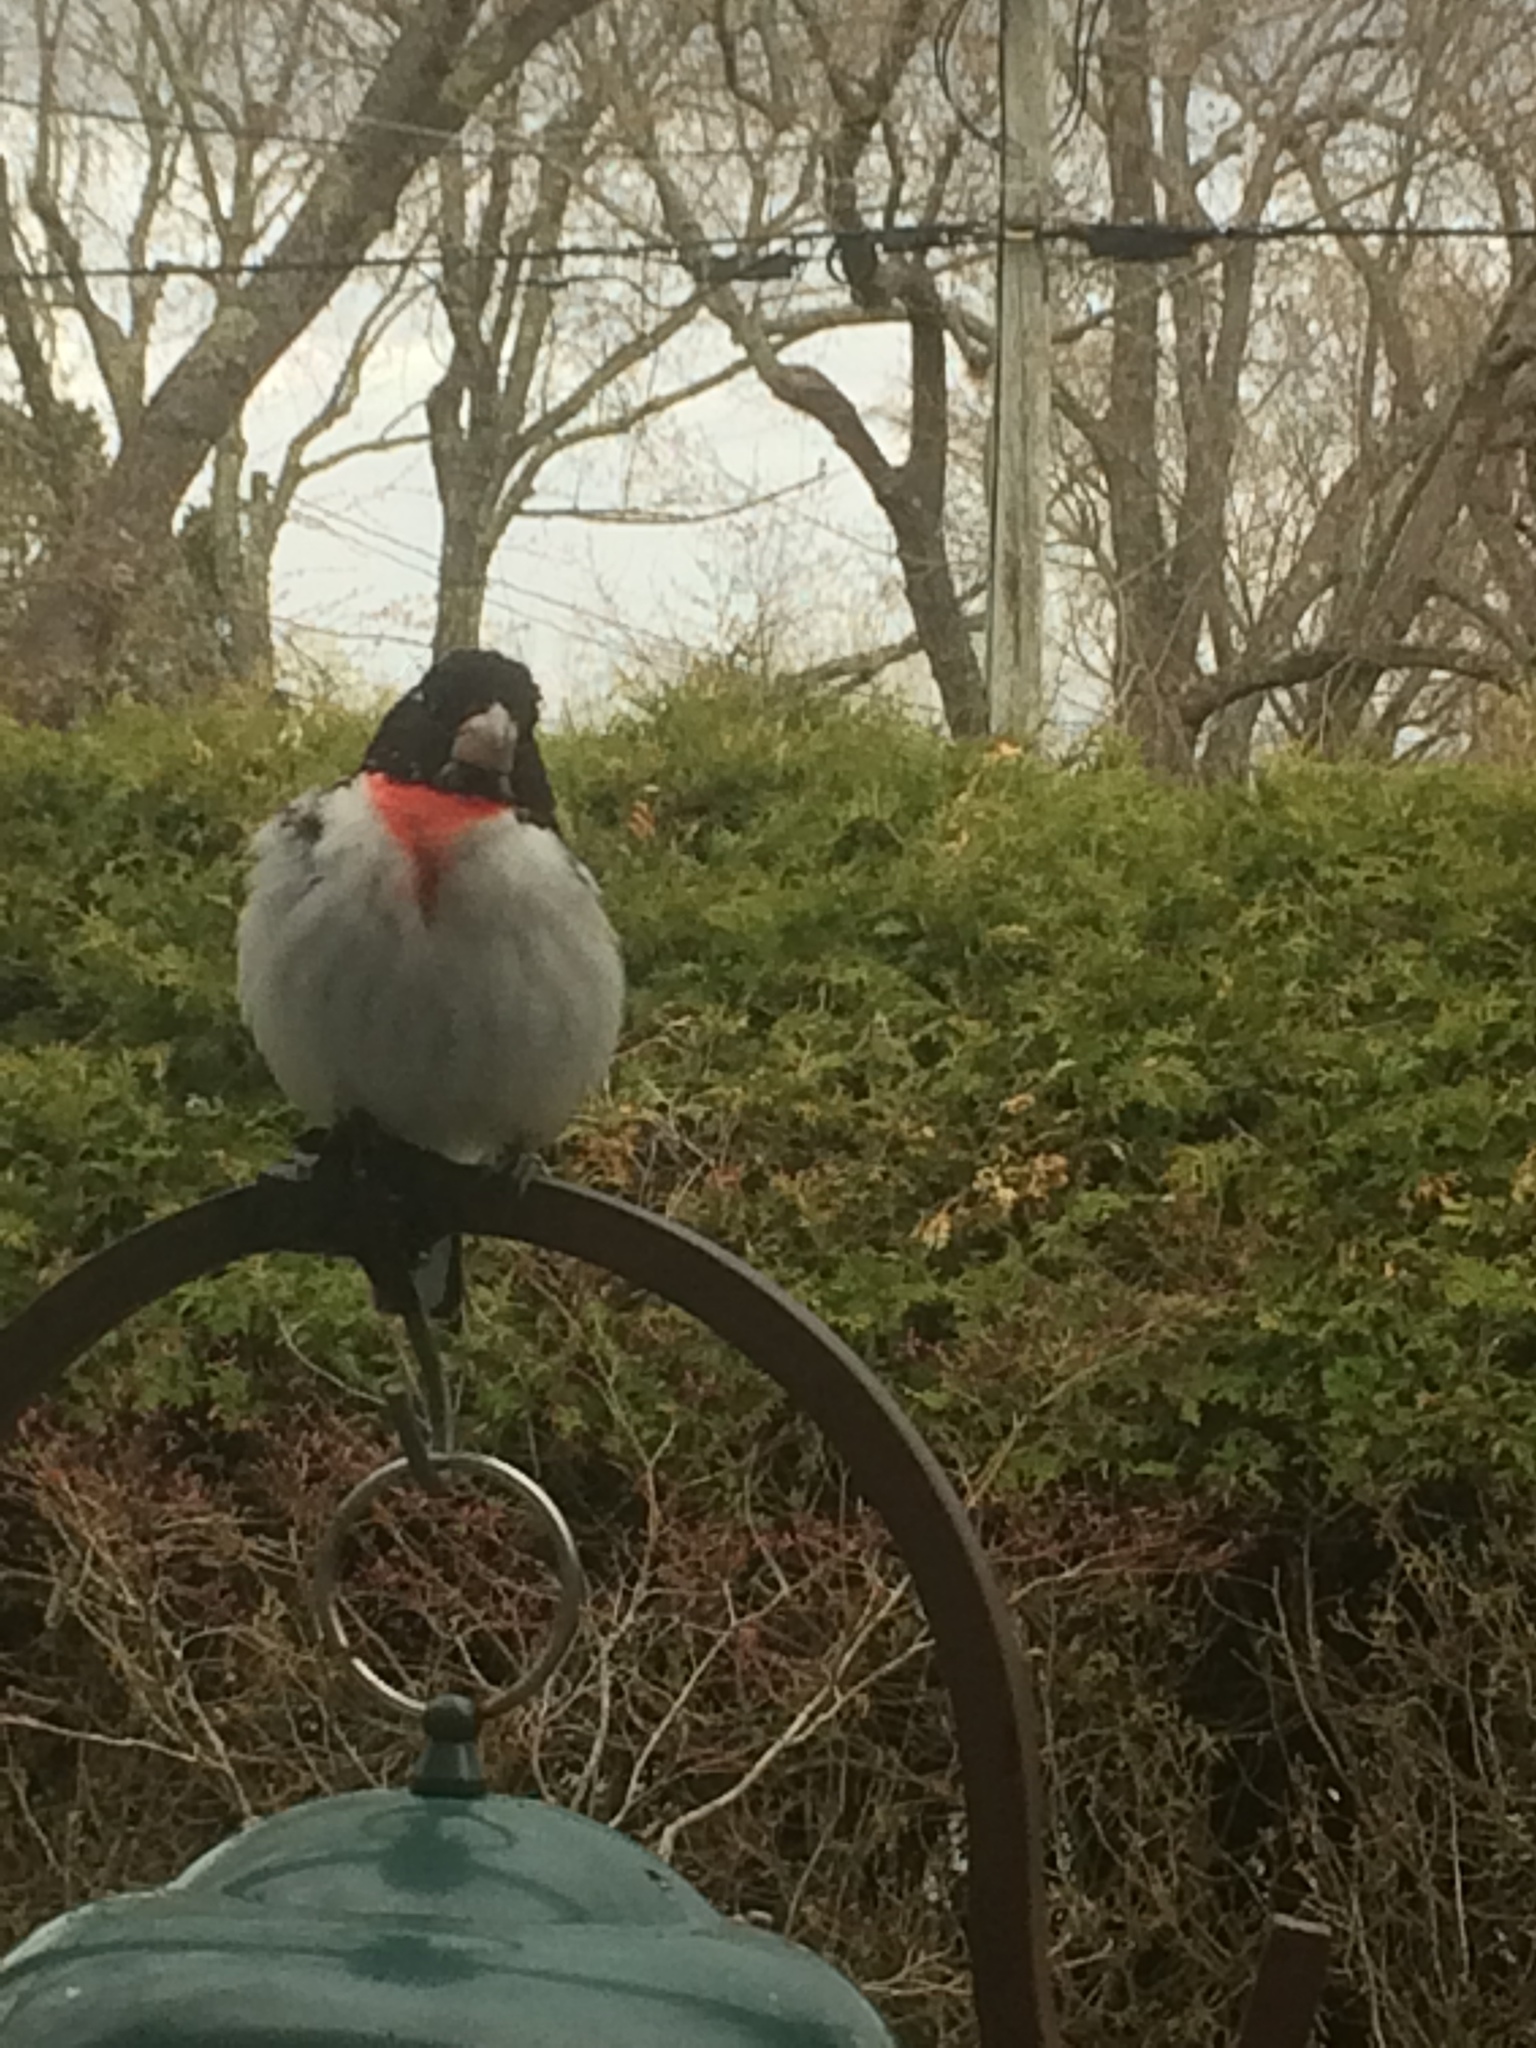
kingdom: Animalia
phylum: Chordata
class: Aves
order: Passeriformes
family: Cardinalidae
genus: Pheucticus
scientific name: Pheucticus ludovicianus
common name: Rose-breasted grosbeak
